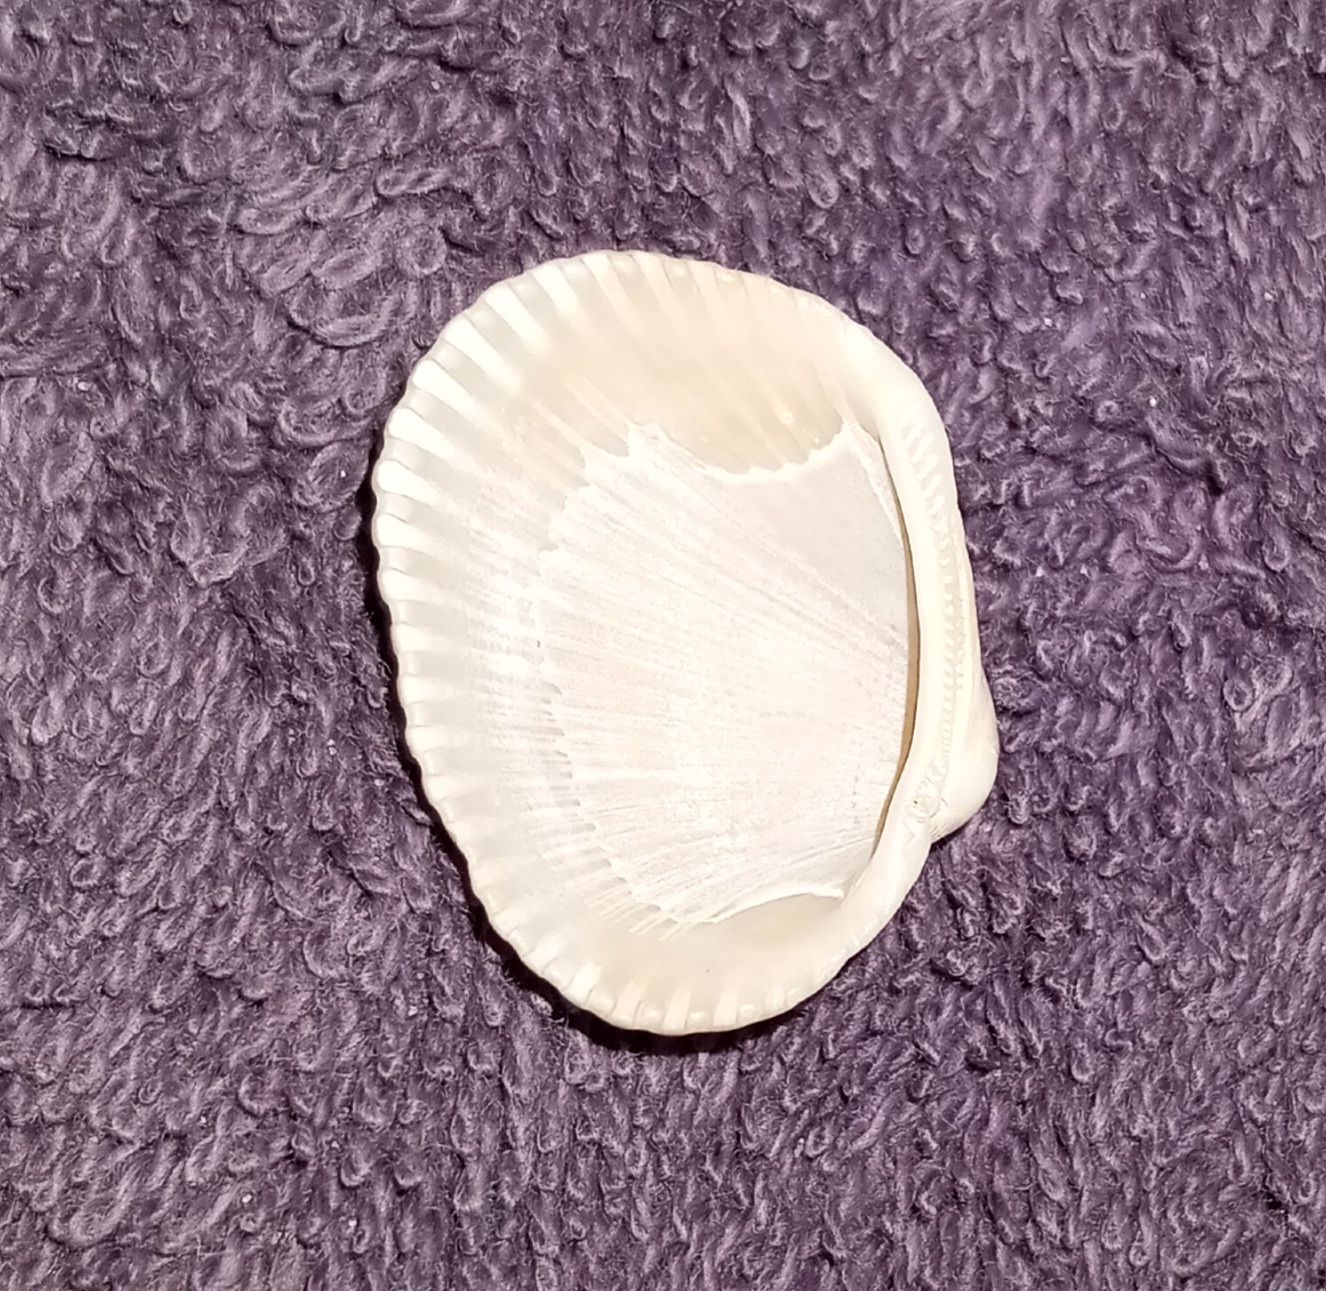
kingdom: Animalia
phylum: Mollusca
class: Bivalvia
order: Arcida
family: Arcidae
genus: Lunarca
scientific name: Lunarca ovalis
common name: Blood ark
